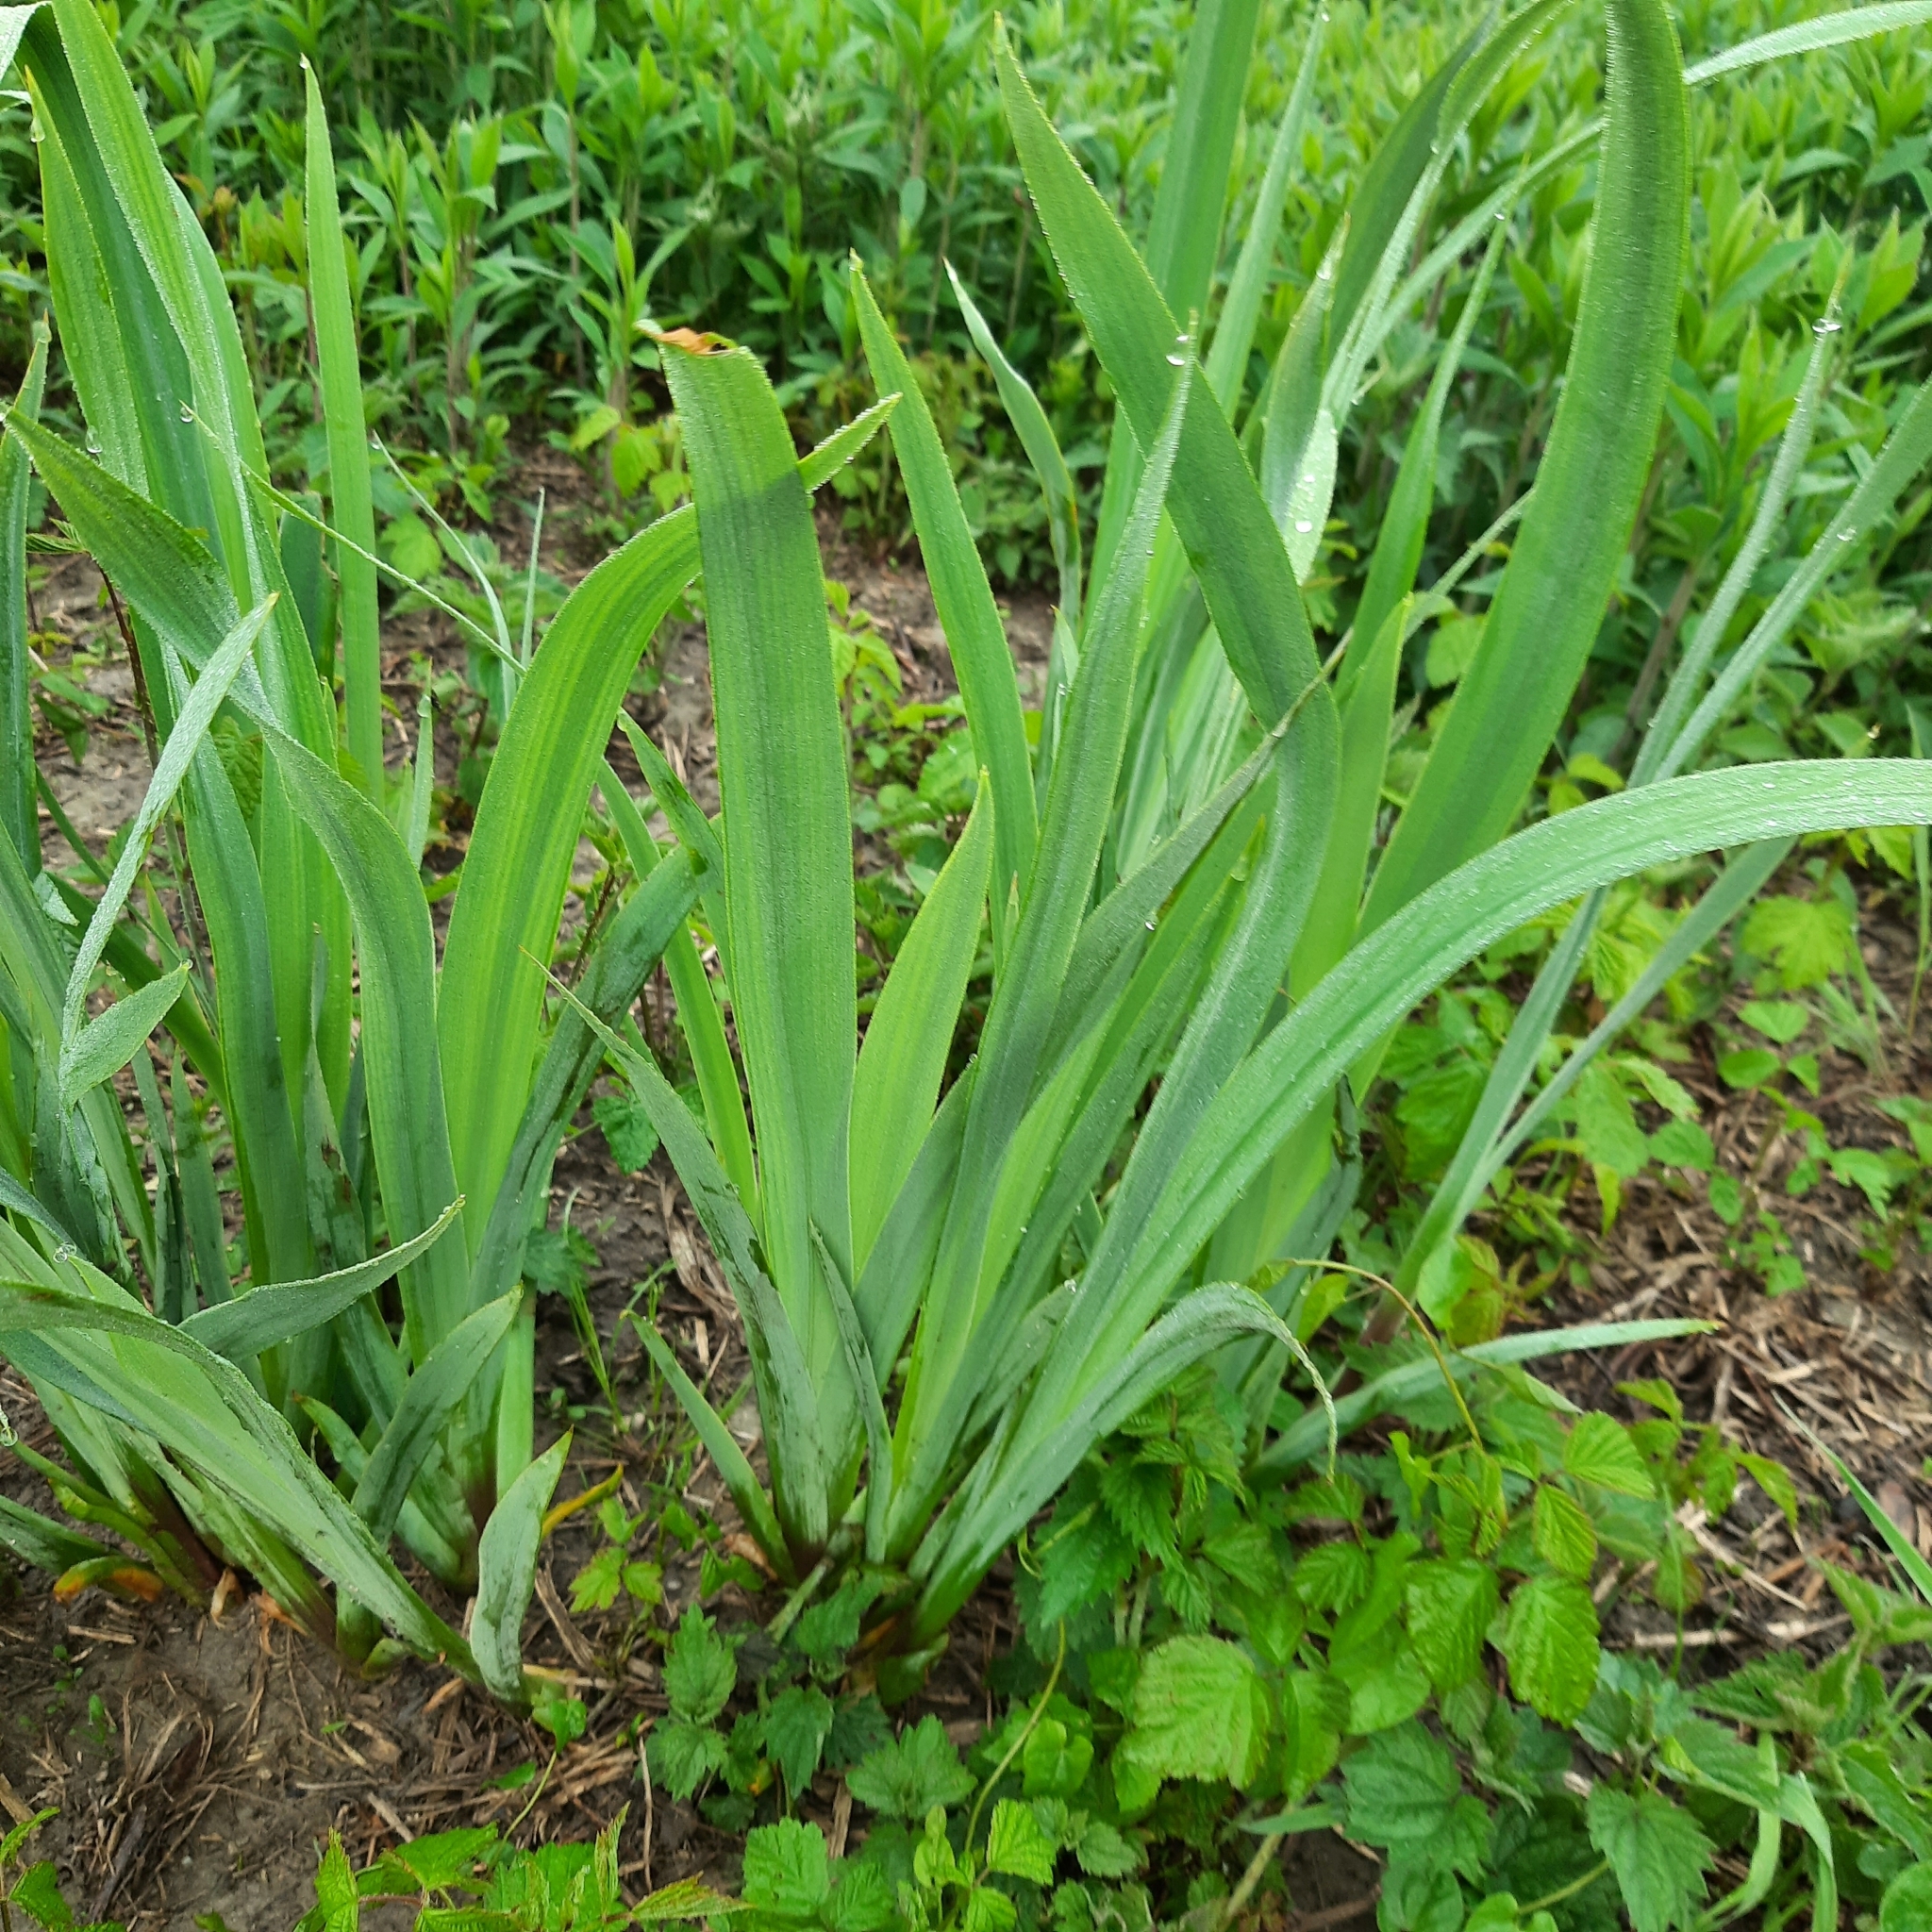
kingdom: Plantae
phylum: Tracheophyta
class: Liliopsida
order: Asparagales
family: Iridaceae
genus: Iris
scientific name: Iris pseudacorus
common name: Yellow flag
